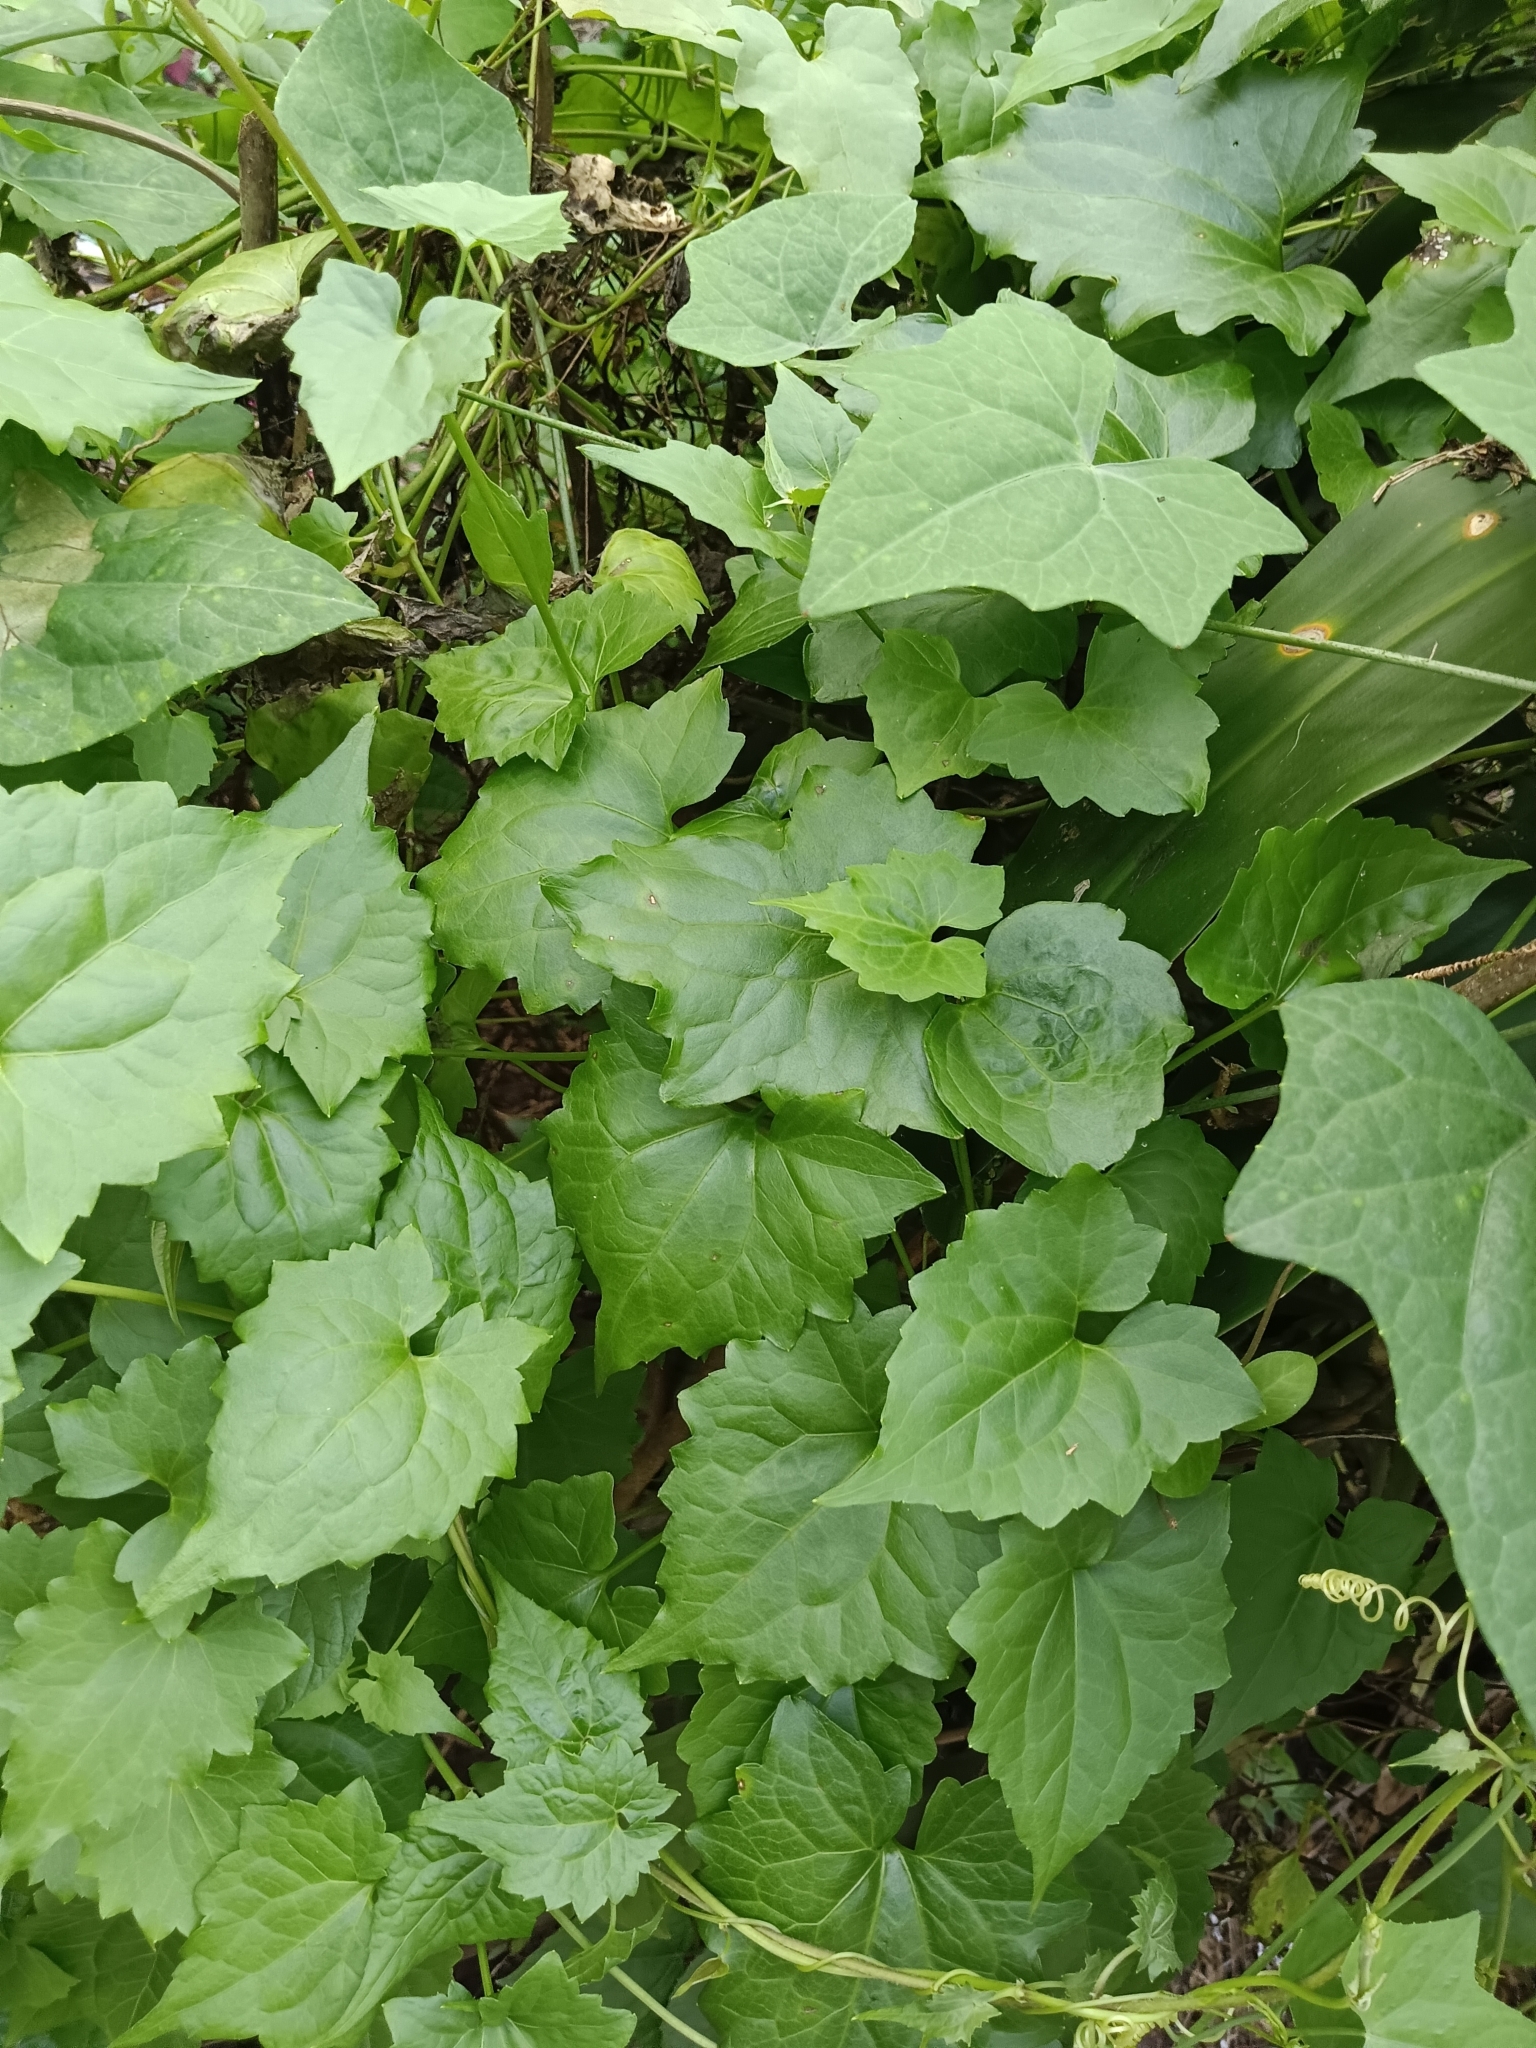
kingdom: Plantae
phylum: Tracheophyta
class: Magnoliopsida
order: Asterales
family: Asteraceae
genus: Mikania
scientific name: Mikania micrantha
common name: Mile-a-minute
